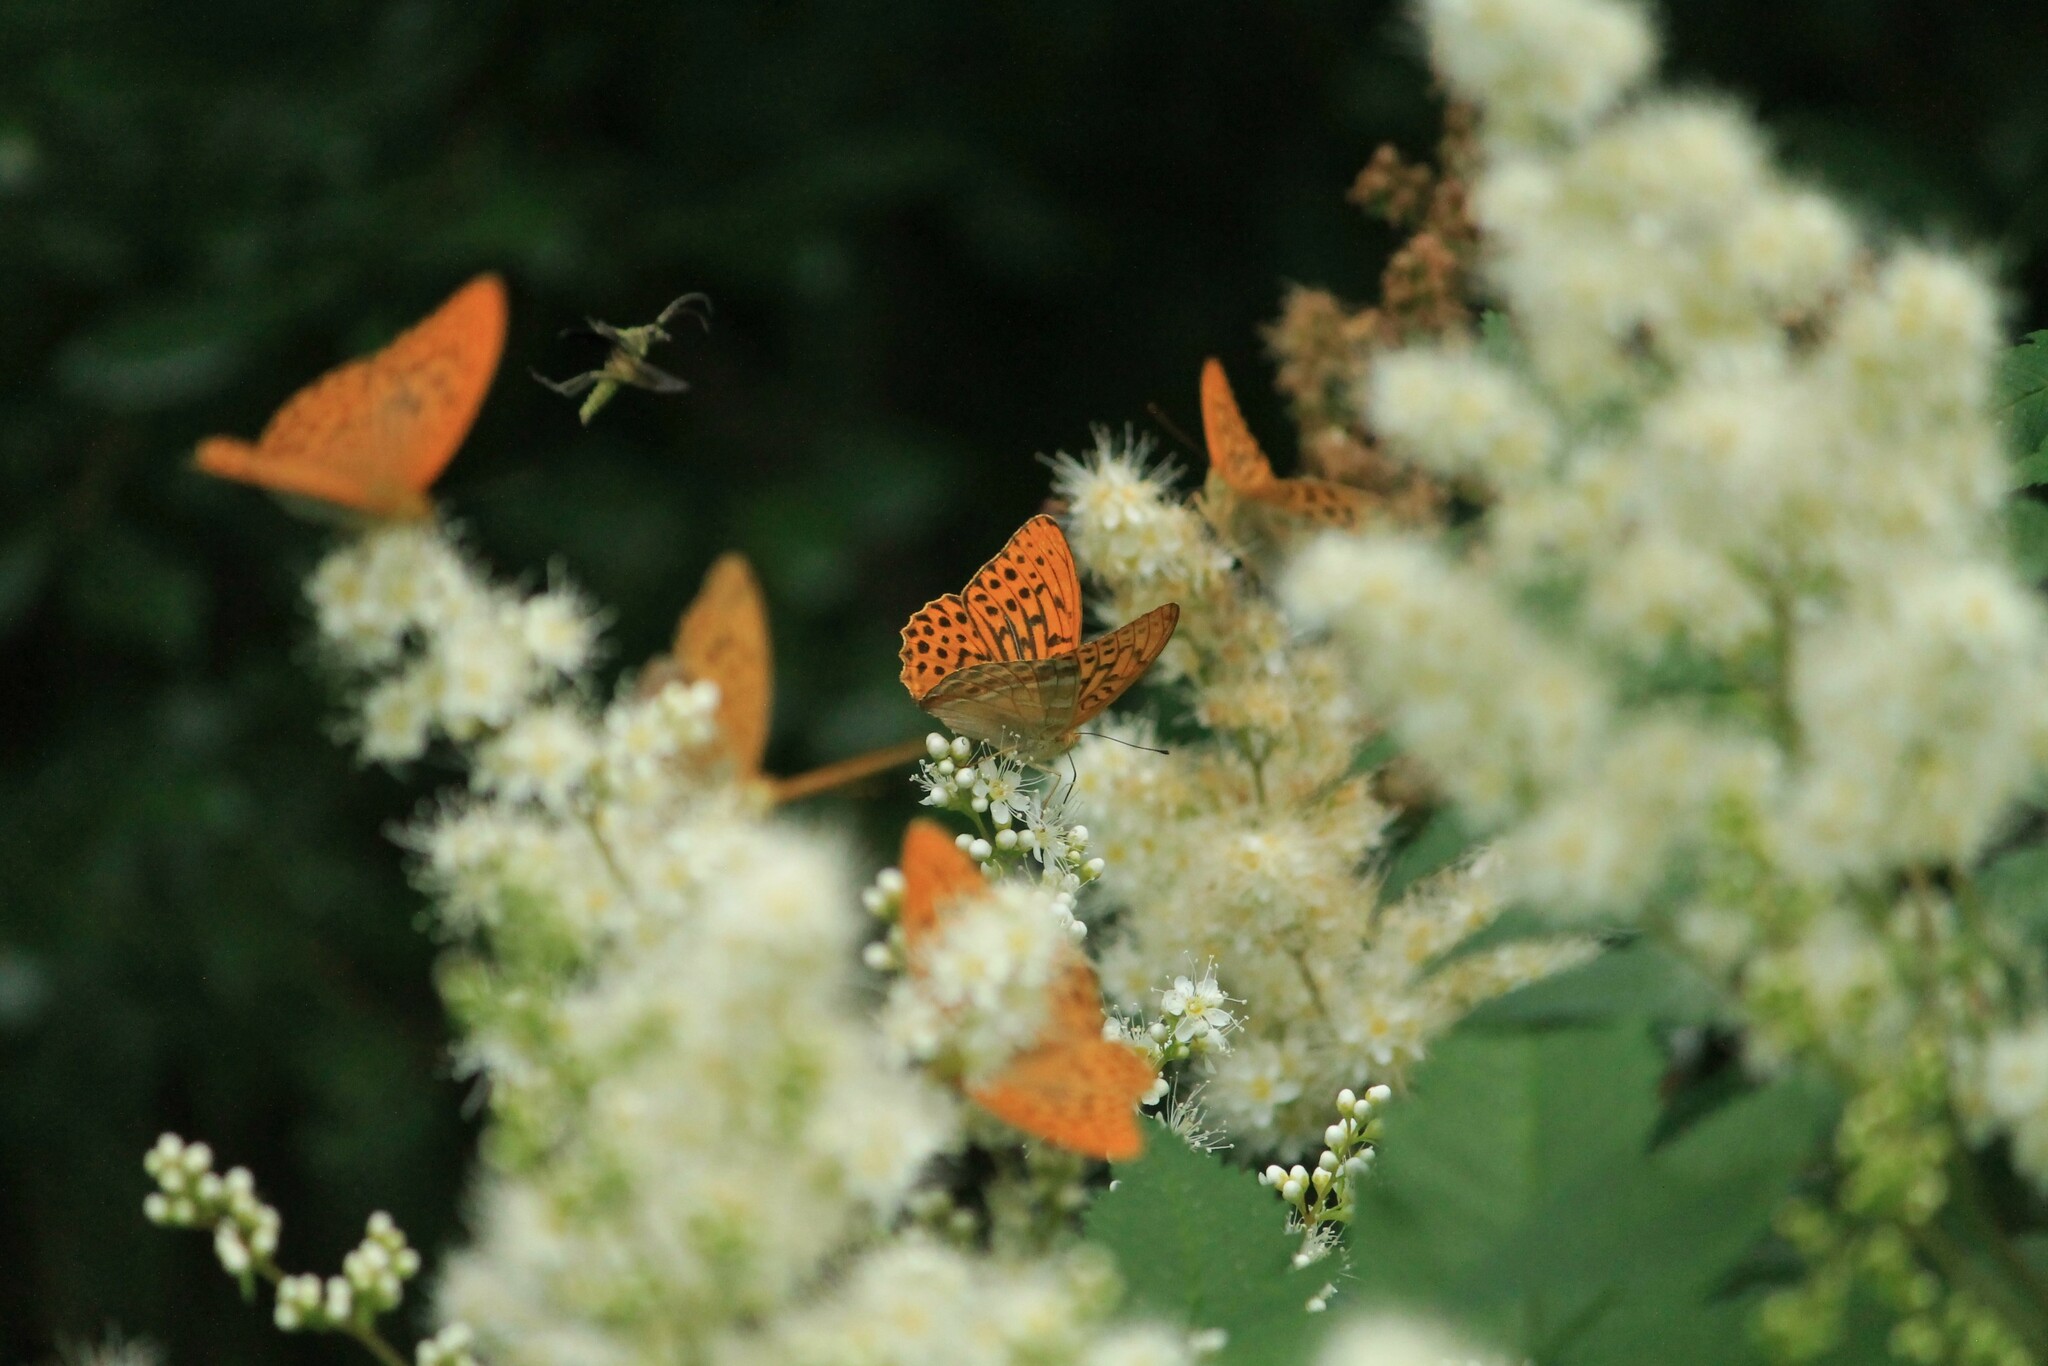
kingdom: Animalia
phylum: Arthropoda
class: Insecta
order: Lepidoptera
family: Nymphalidae
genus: Argynnis
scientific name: Argynnis paphia
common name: Silver-washed fritillary
